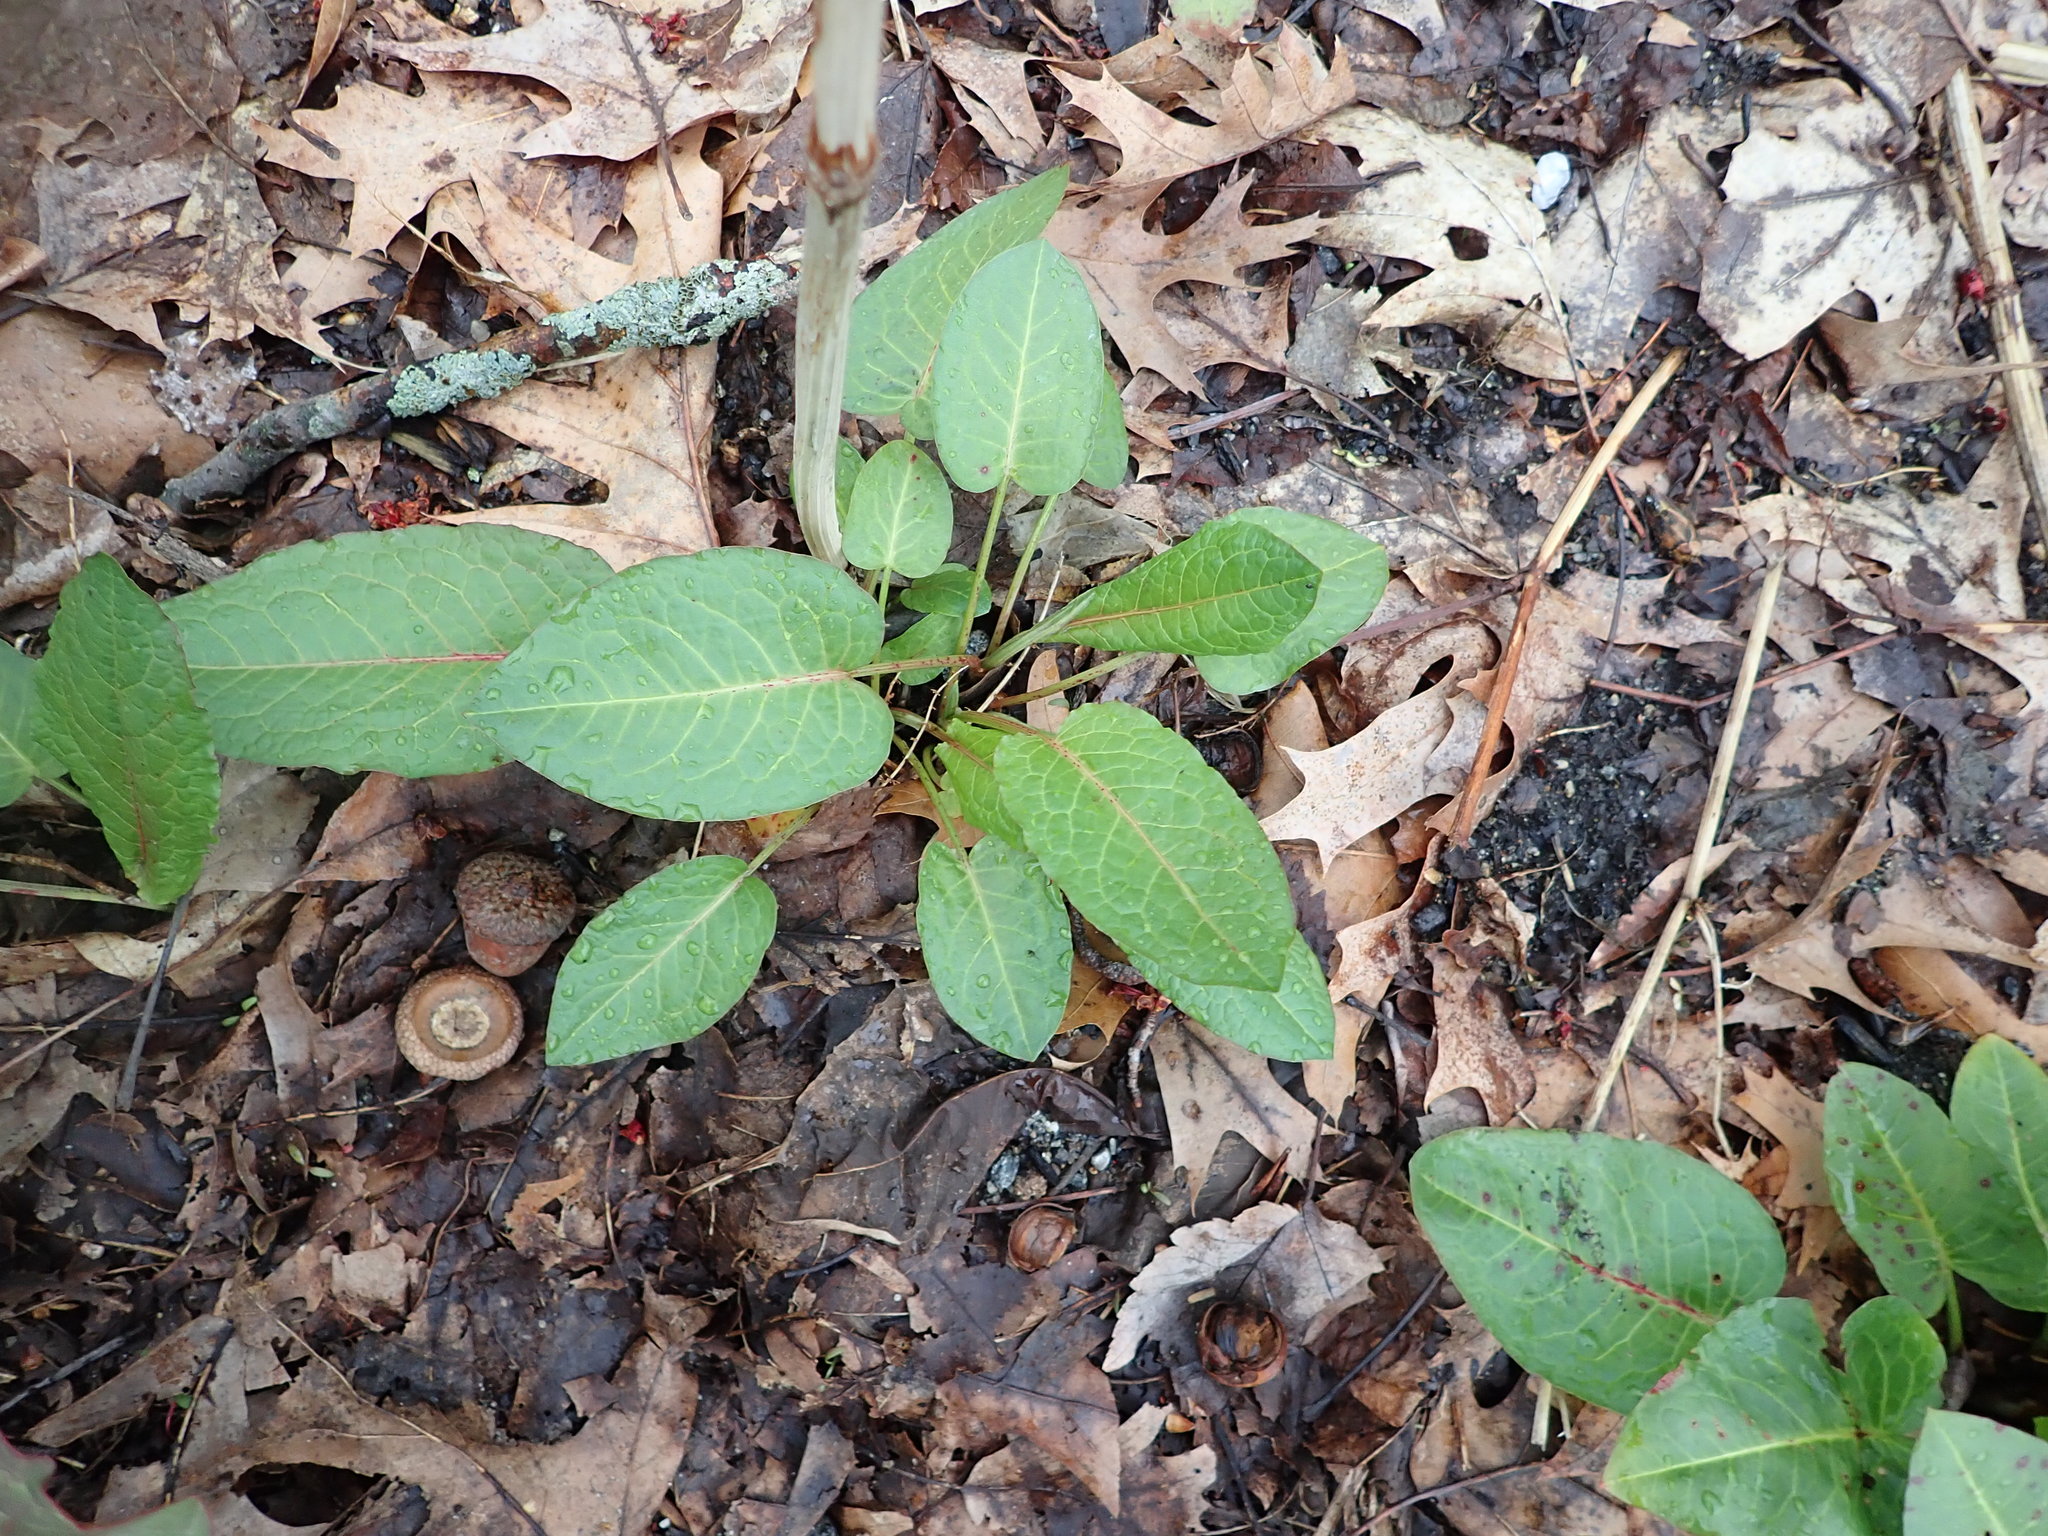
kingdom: Plantae
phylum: Tracheophyta
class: Magnoliopsida
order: Caryophyllales
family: Polygonaceae
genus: Rumex
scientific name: Rumex obtusifolius
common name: Bitter dock
